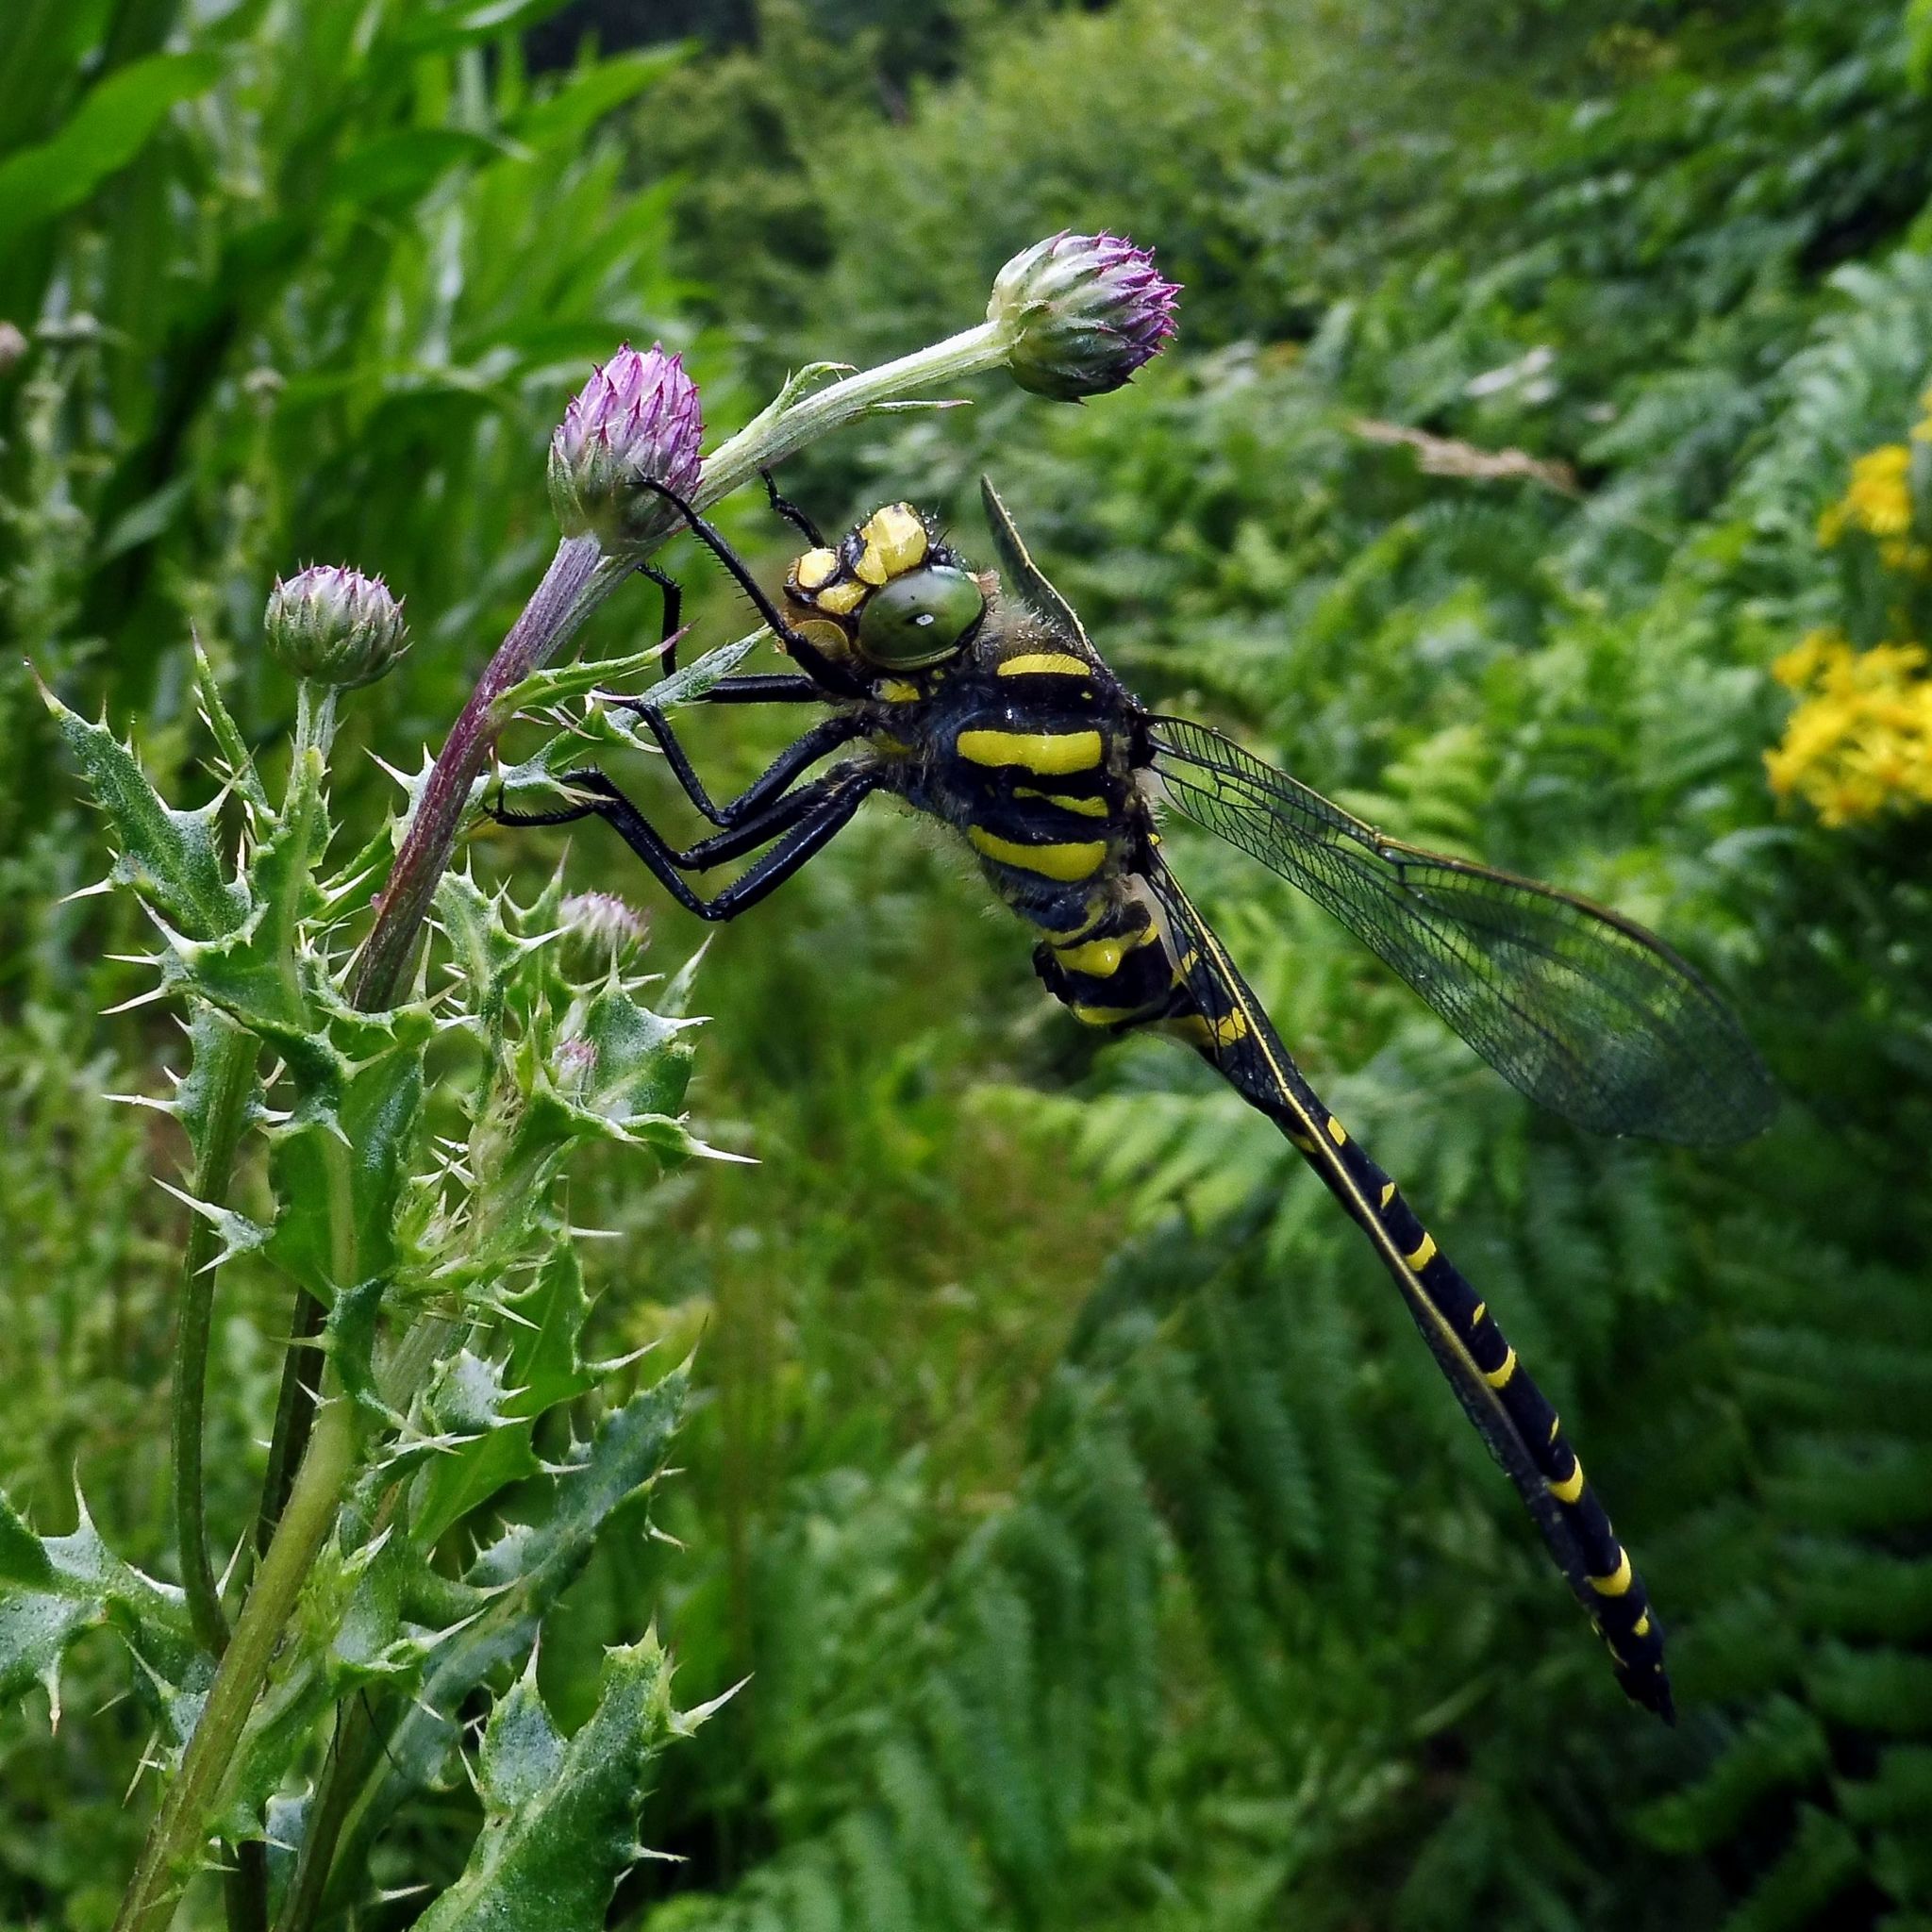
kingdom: Animalia
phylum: Arthropoda
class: Insecta
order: Odonata
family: Cordulegastridae
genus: Cordulegaster
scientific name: Cordulegaster boltonii
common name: Golden-ringed dragonfly
